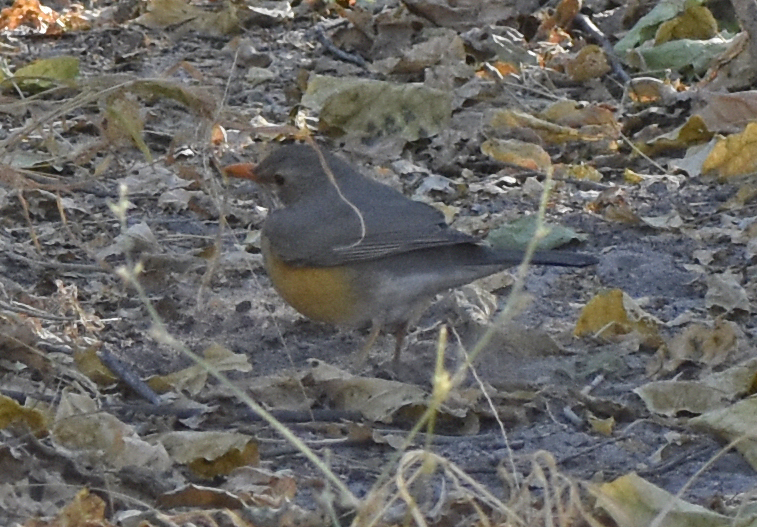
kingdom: Animalia
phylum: Chordata
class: Aves
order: Passeriformes
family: Turdidae
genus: Turdus
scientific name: Turdus libonyana
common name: Kurrichane thrush
